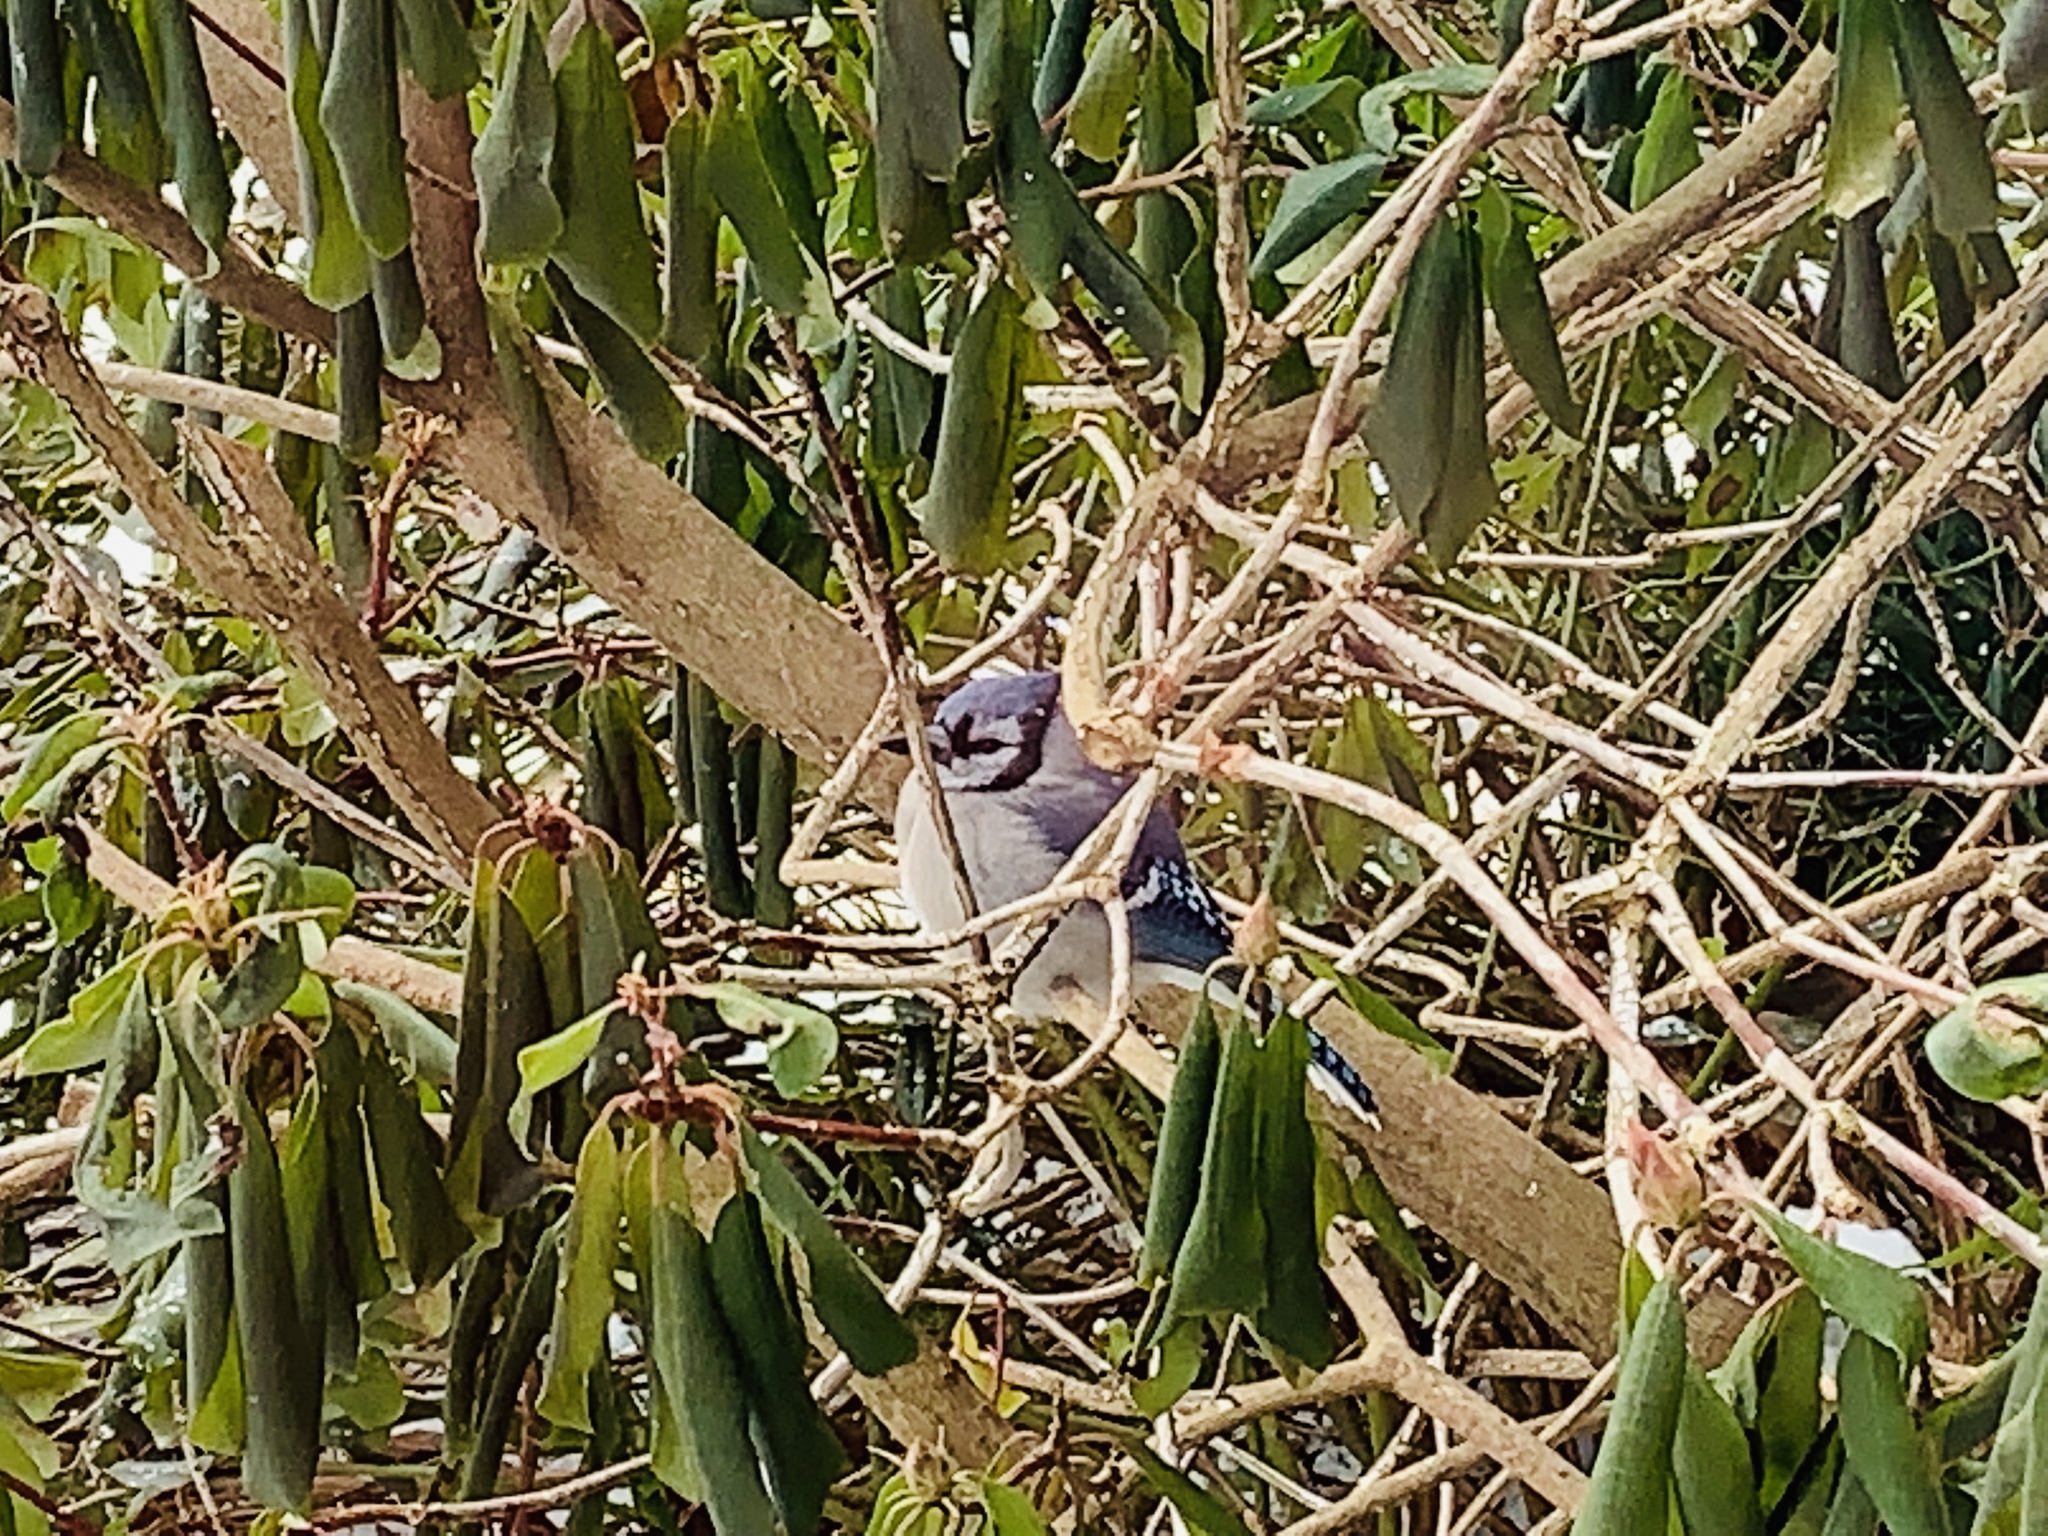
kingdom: Animalia
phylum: Chordata
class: Aves
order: Passeriformes
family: Corvidae
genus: Cyanocitta
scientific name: Cyanocitta cristata
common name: Blue jay
